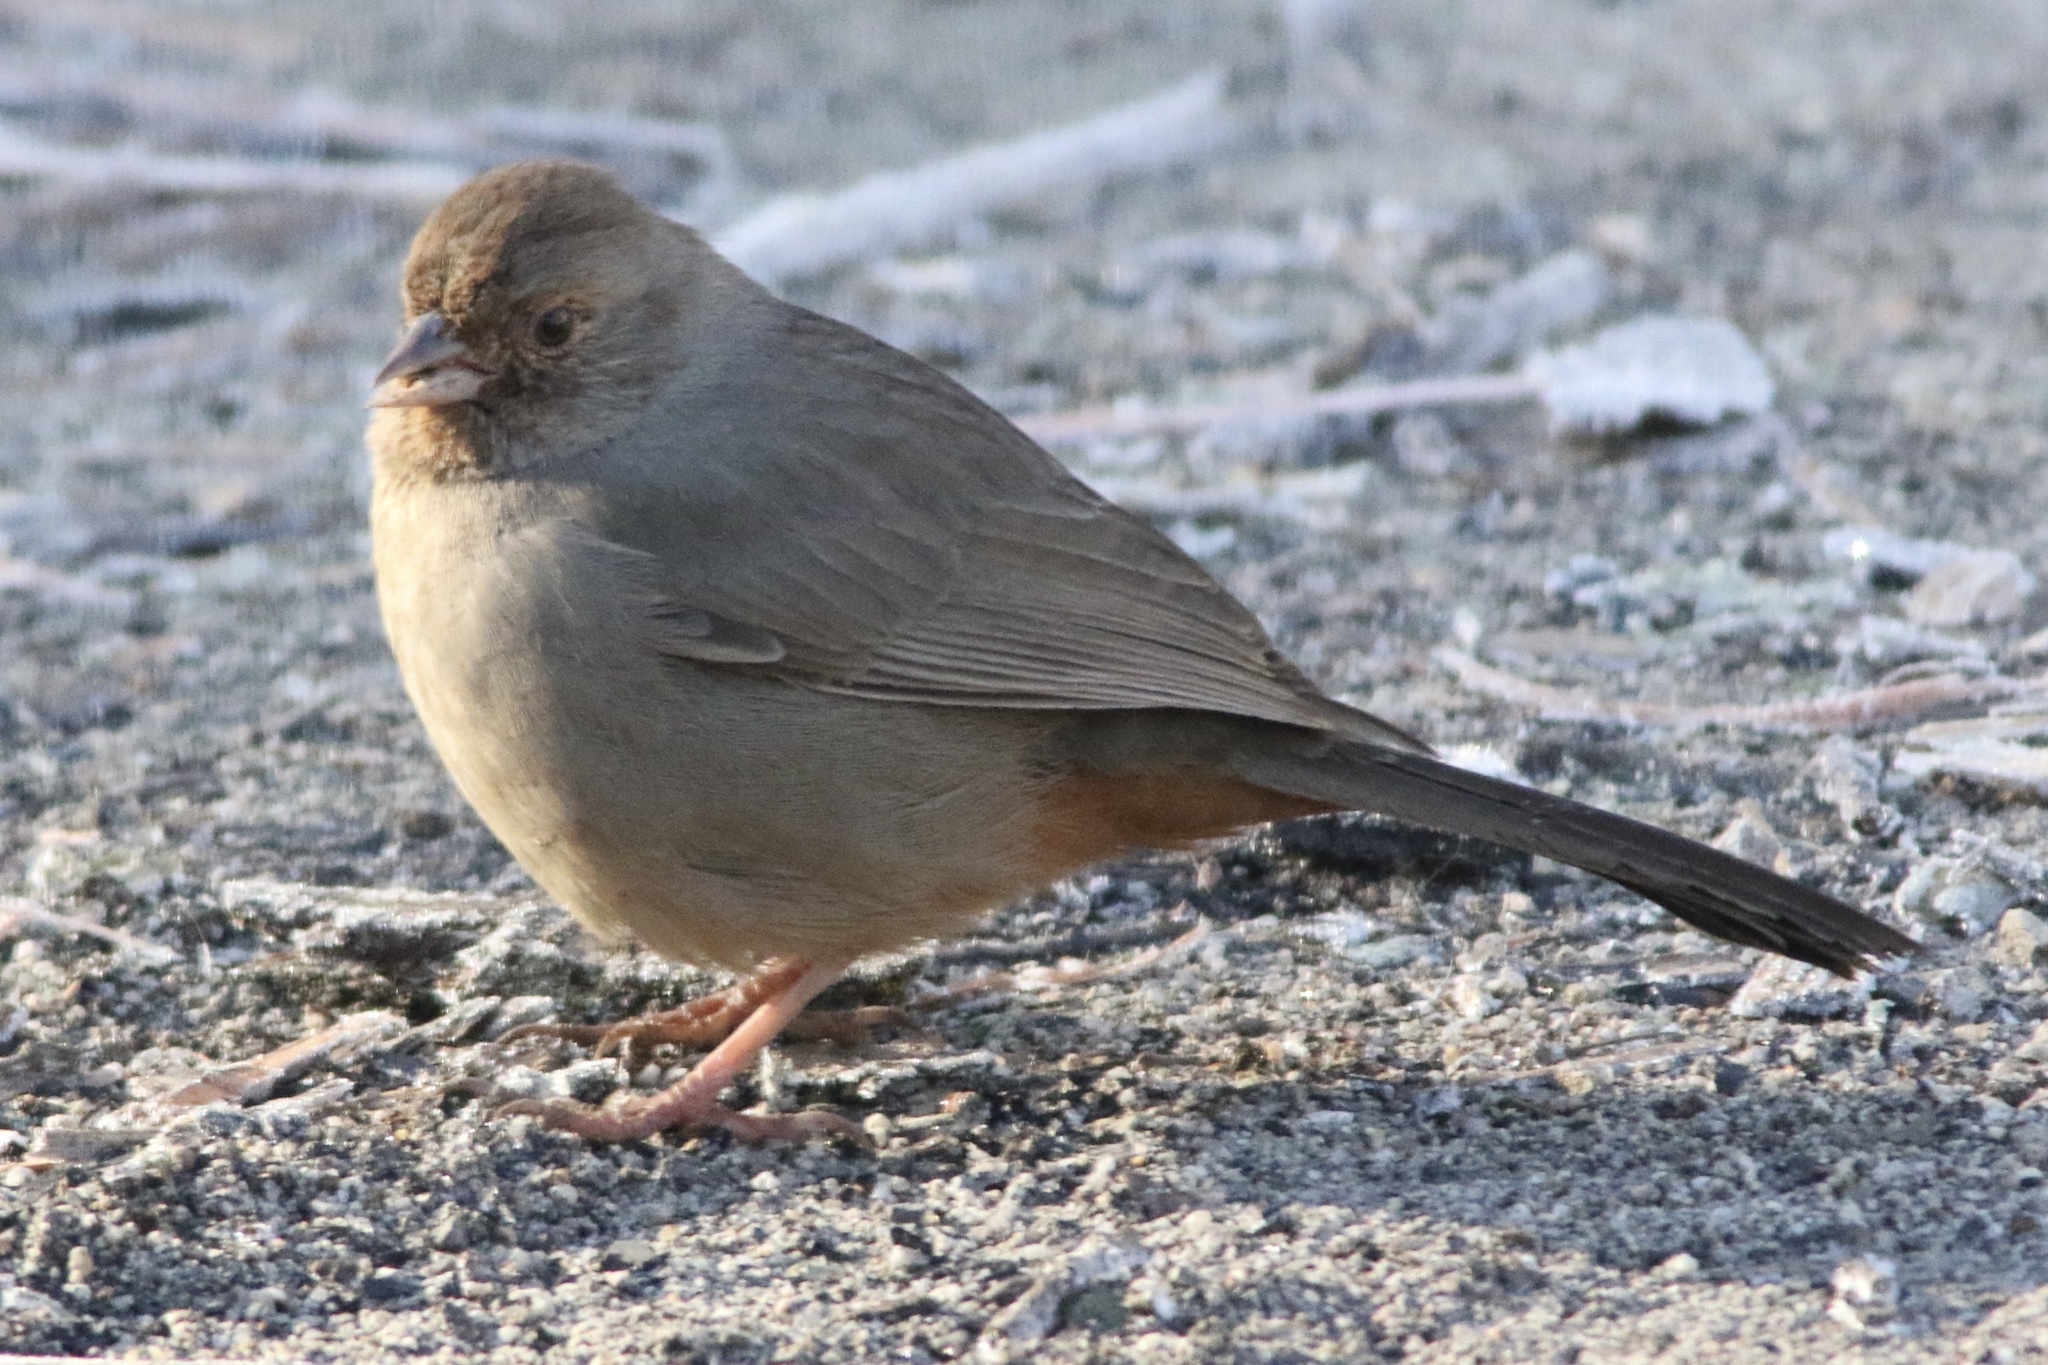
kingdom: Animalia
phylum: Chordata
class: Aves
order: Passeriformes
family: Passerellidae
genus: Melozone
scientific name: Melozone crissalis
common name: California towhee
